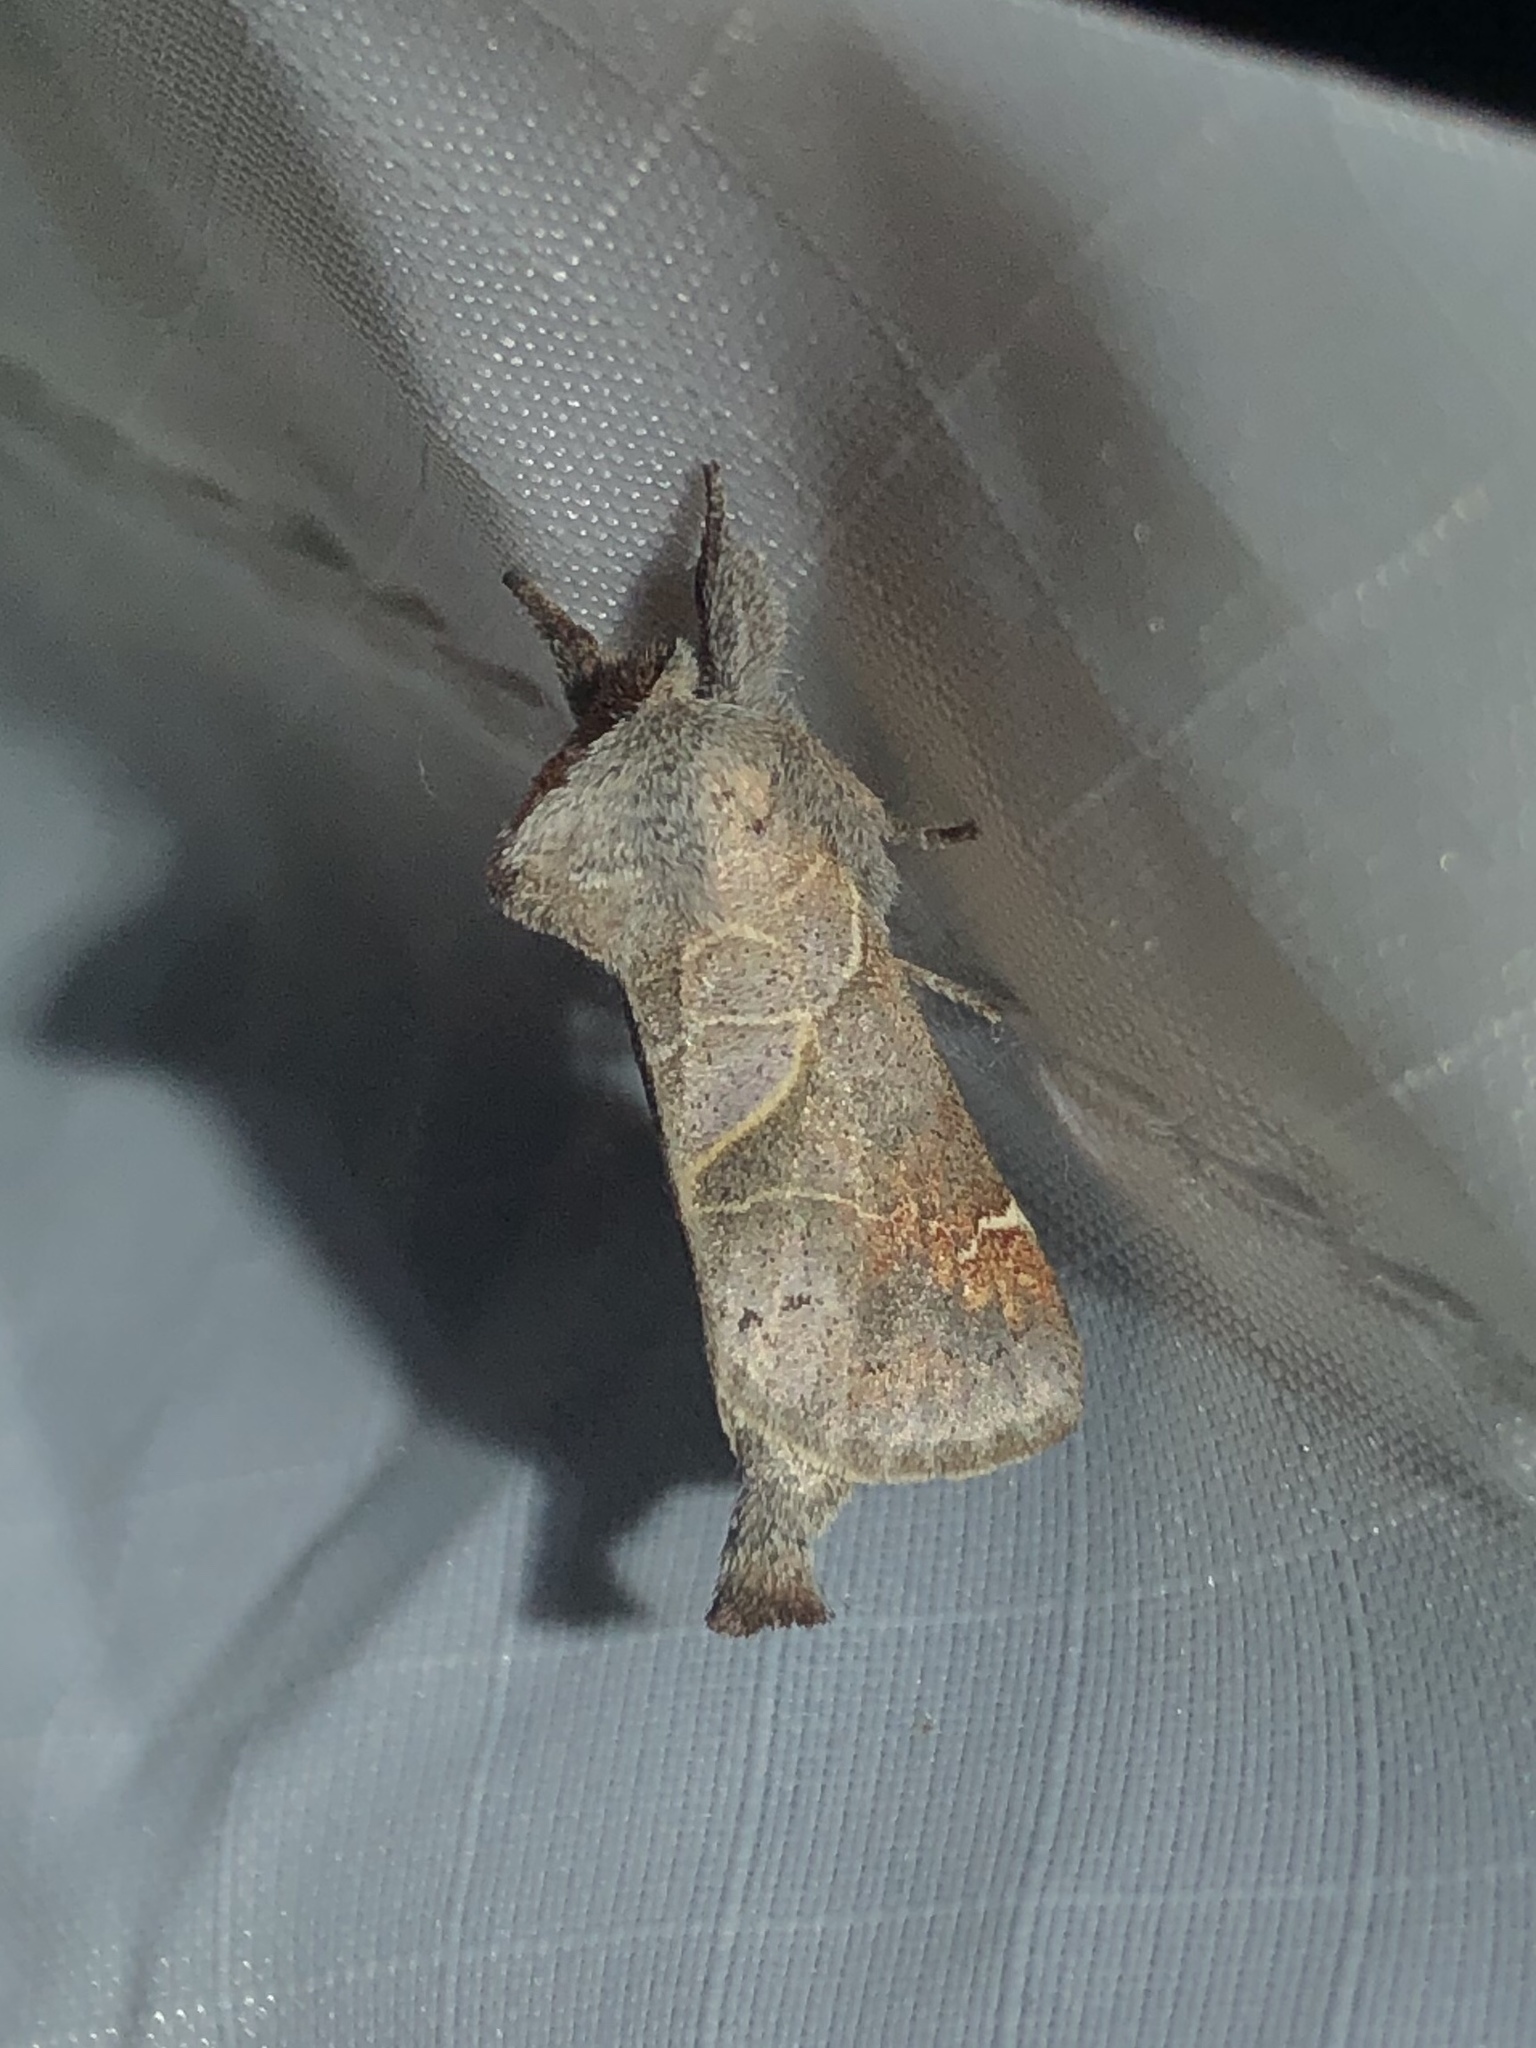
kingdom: Animalia
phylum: Arthropoda
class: Insecta
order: Lepidoptera
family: Notodontidae
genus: Clostera
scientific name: Clostera apicalis
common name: Apical prominent
